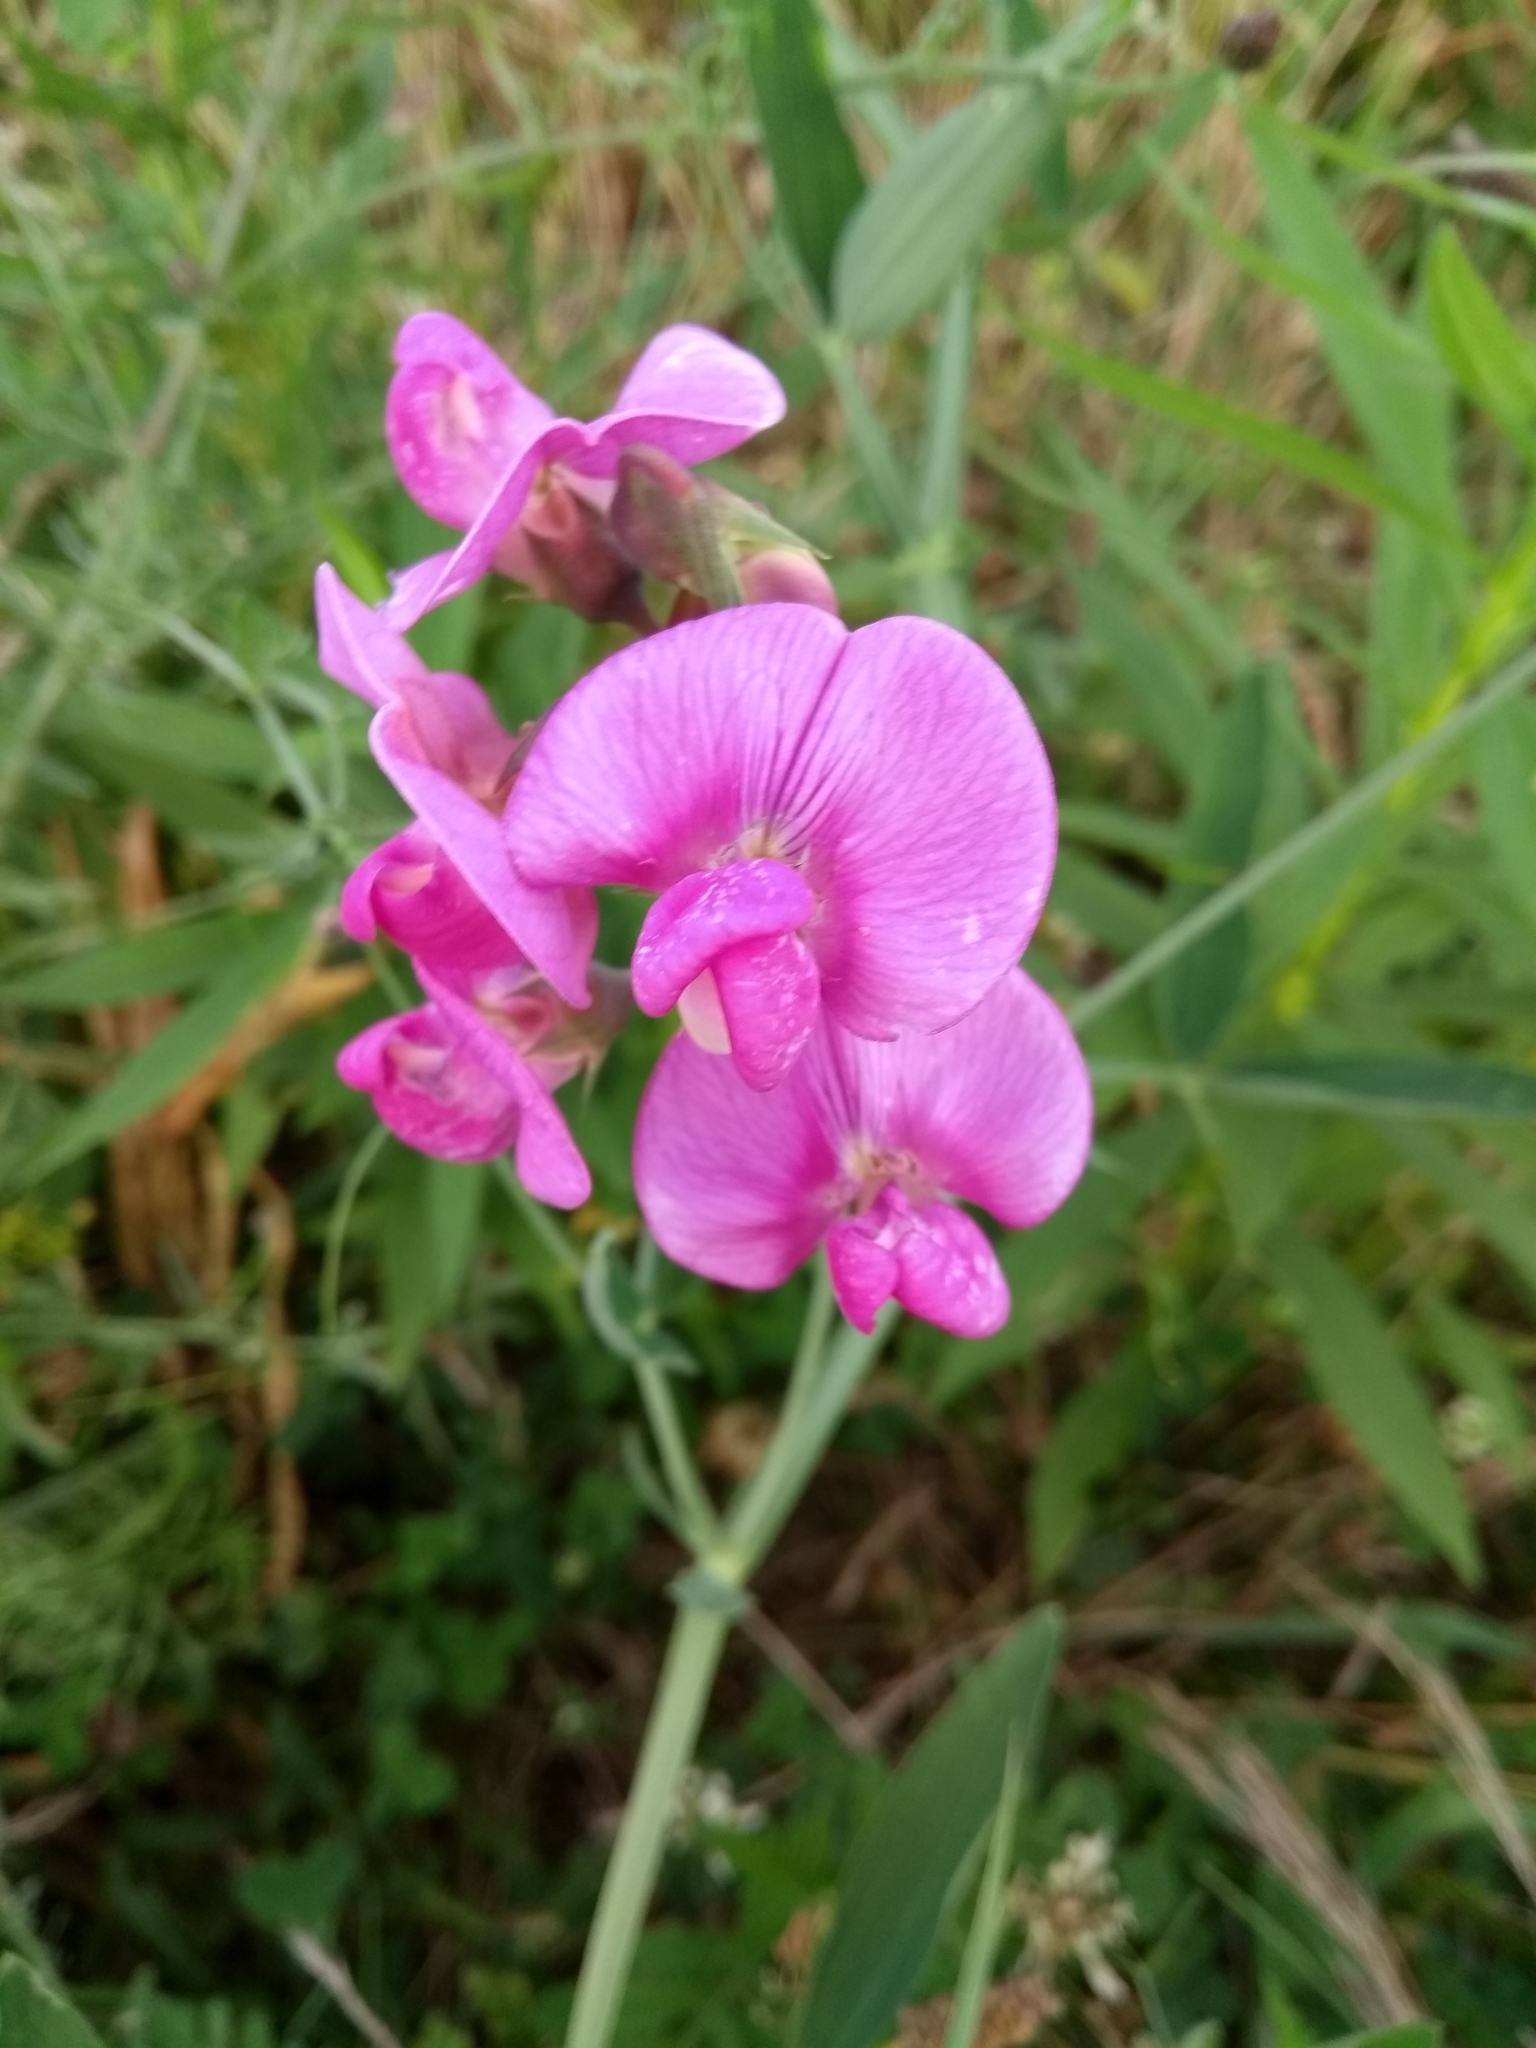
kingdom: Plantae
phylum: Tracheophyta
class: Magnoliopsida
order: Fabales
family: Fabaceae
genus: Lathyrus
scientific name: Lathyrus latifolius
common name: Perennial pea
